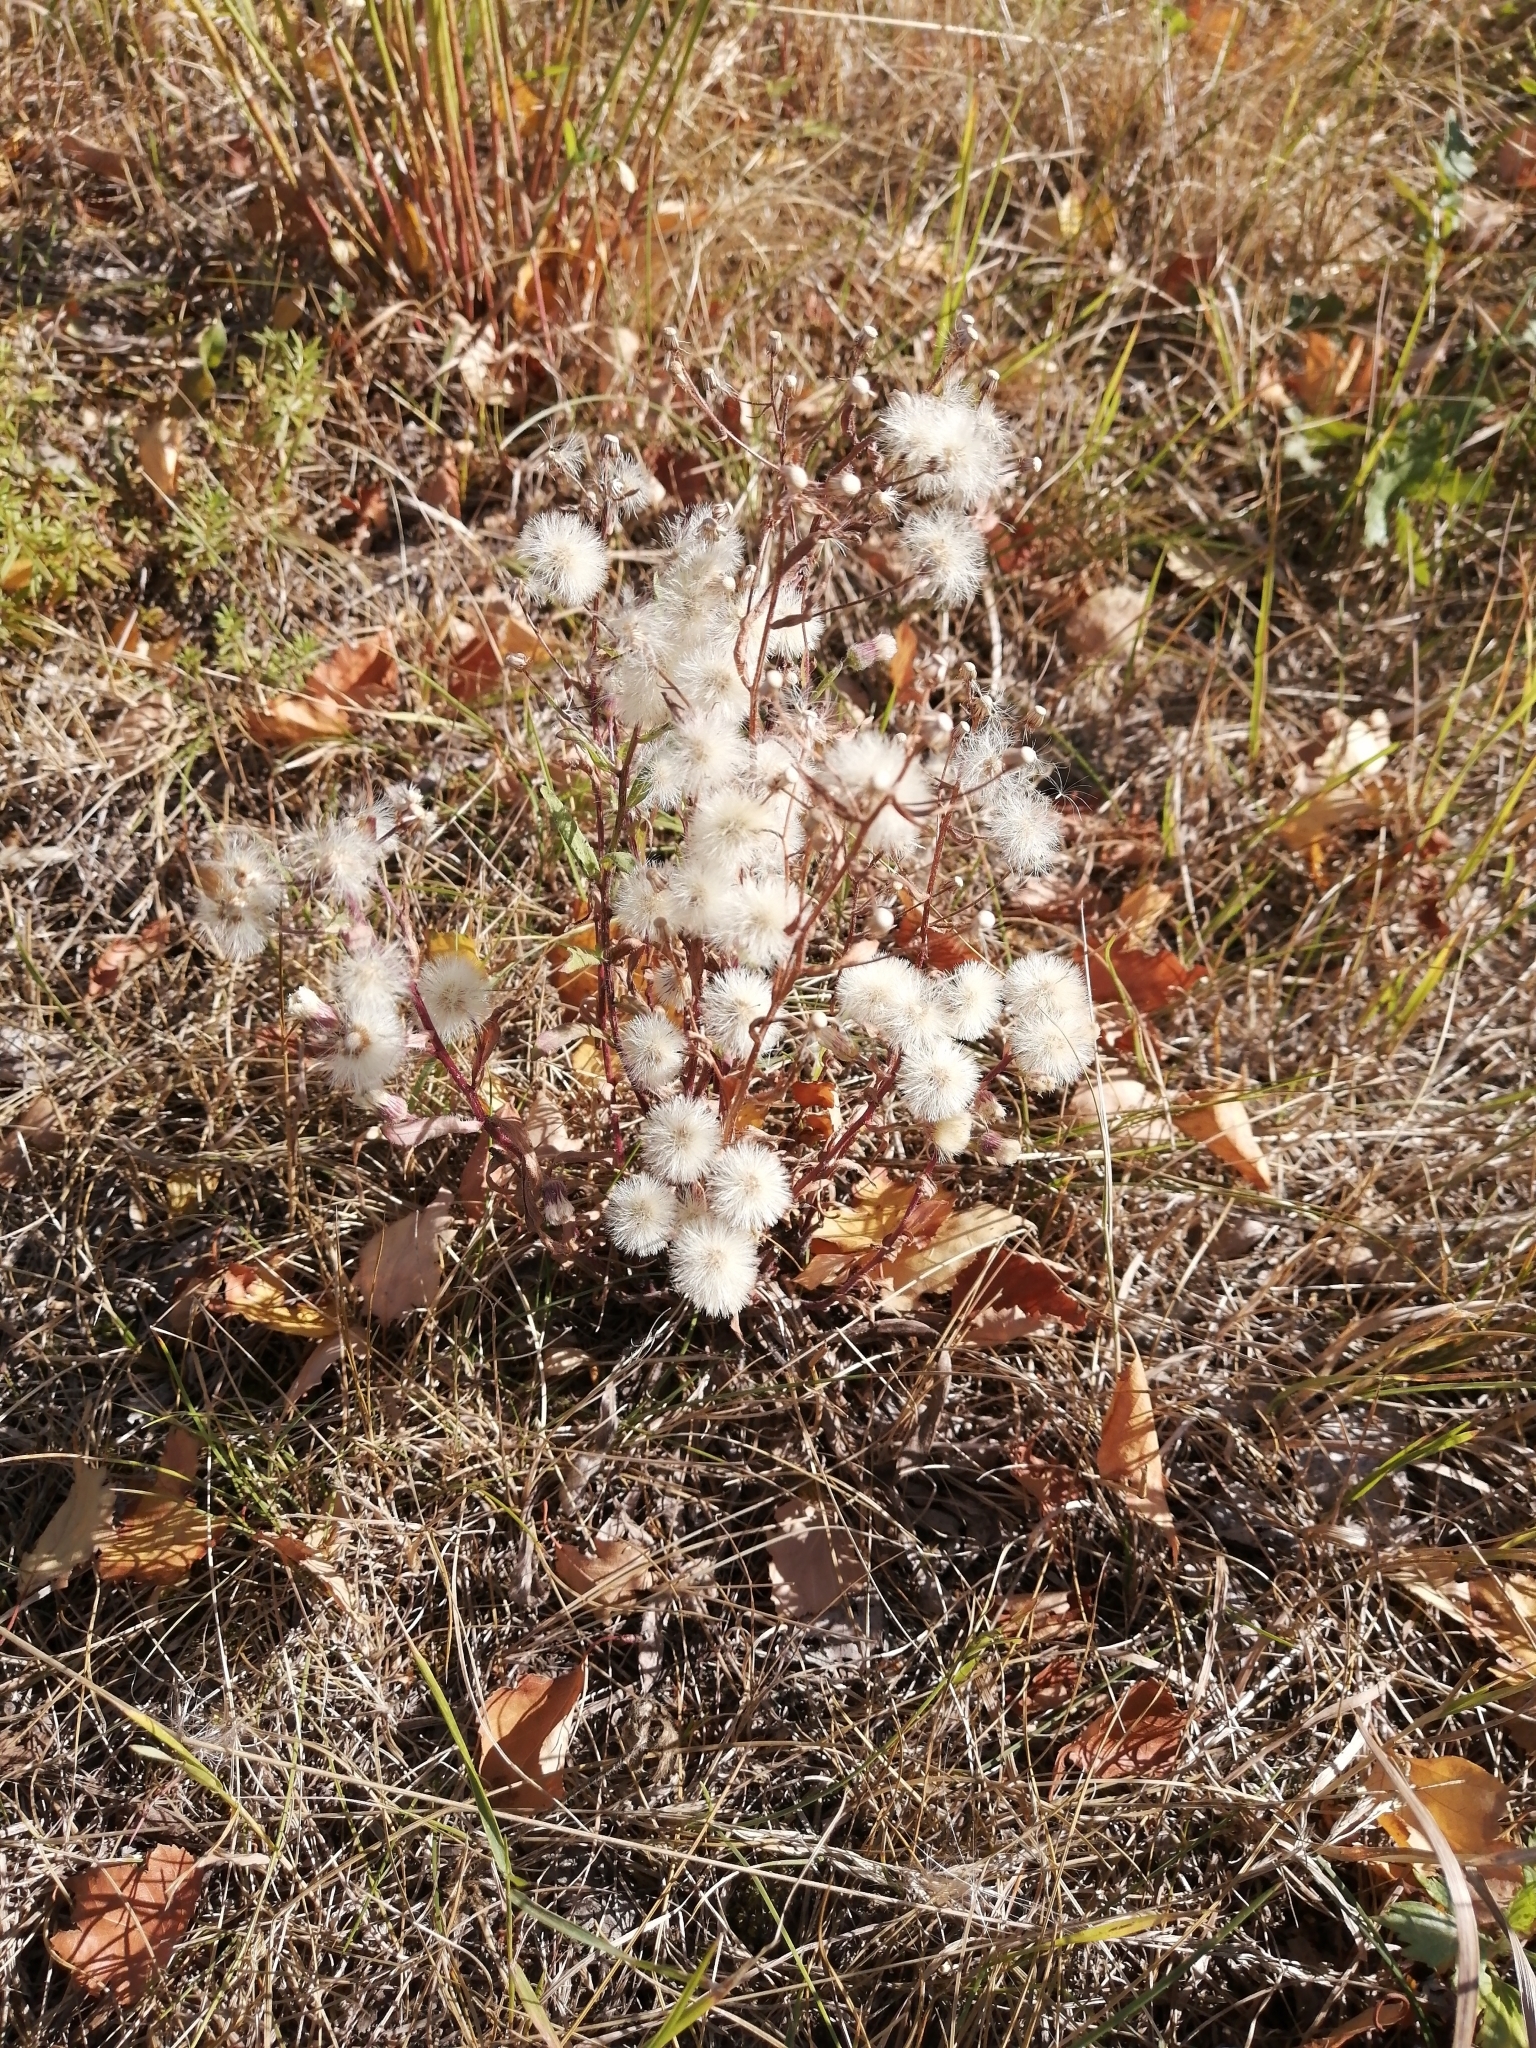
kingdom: Plantae
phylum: Tracheophyta
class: Magnoliopsida
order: Asterales
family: Asteraceae
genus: Erigeron
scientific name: Erigeron acris
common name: Blue fleabane
